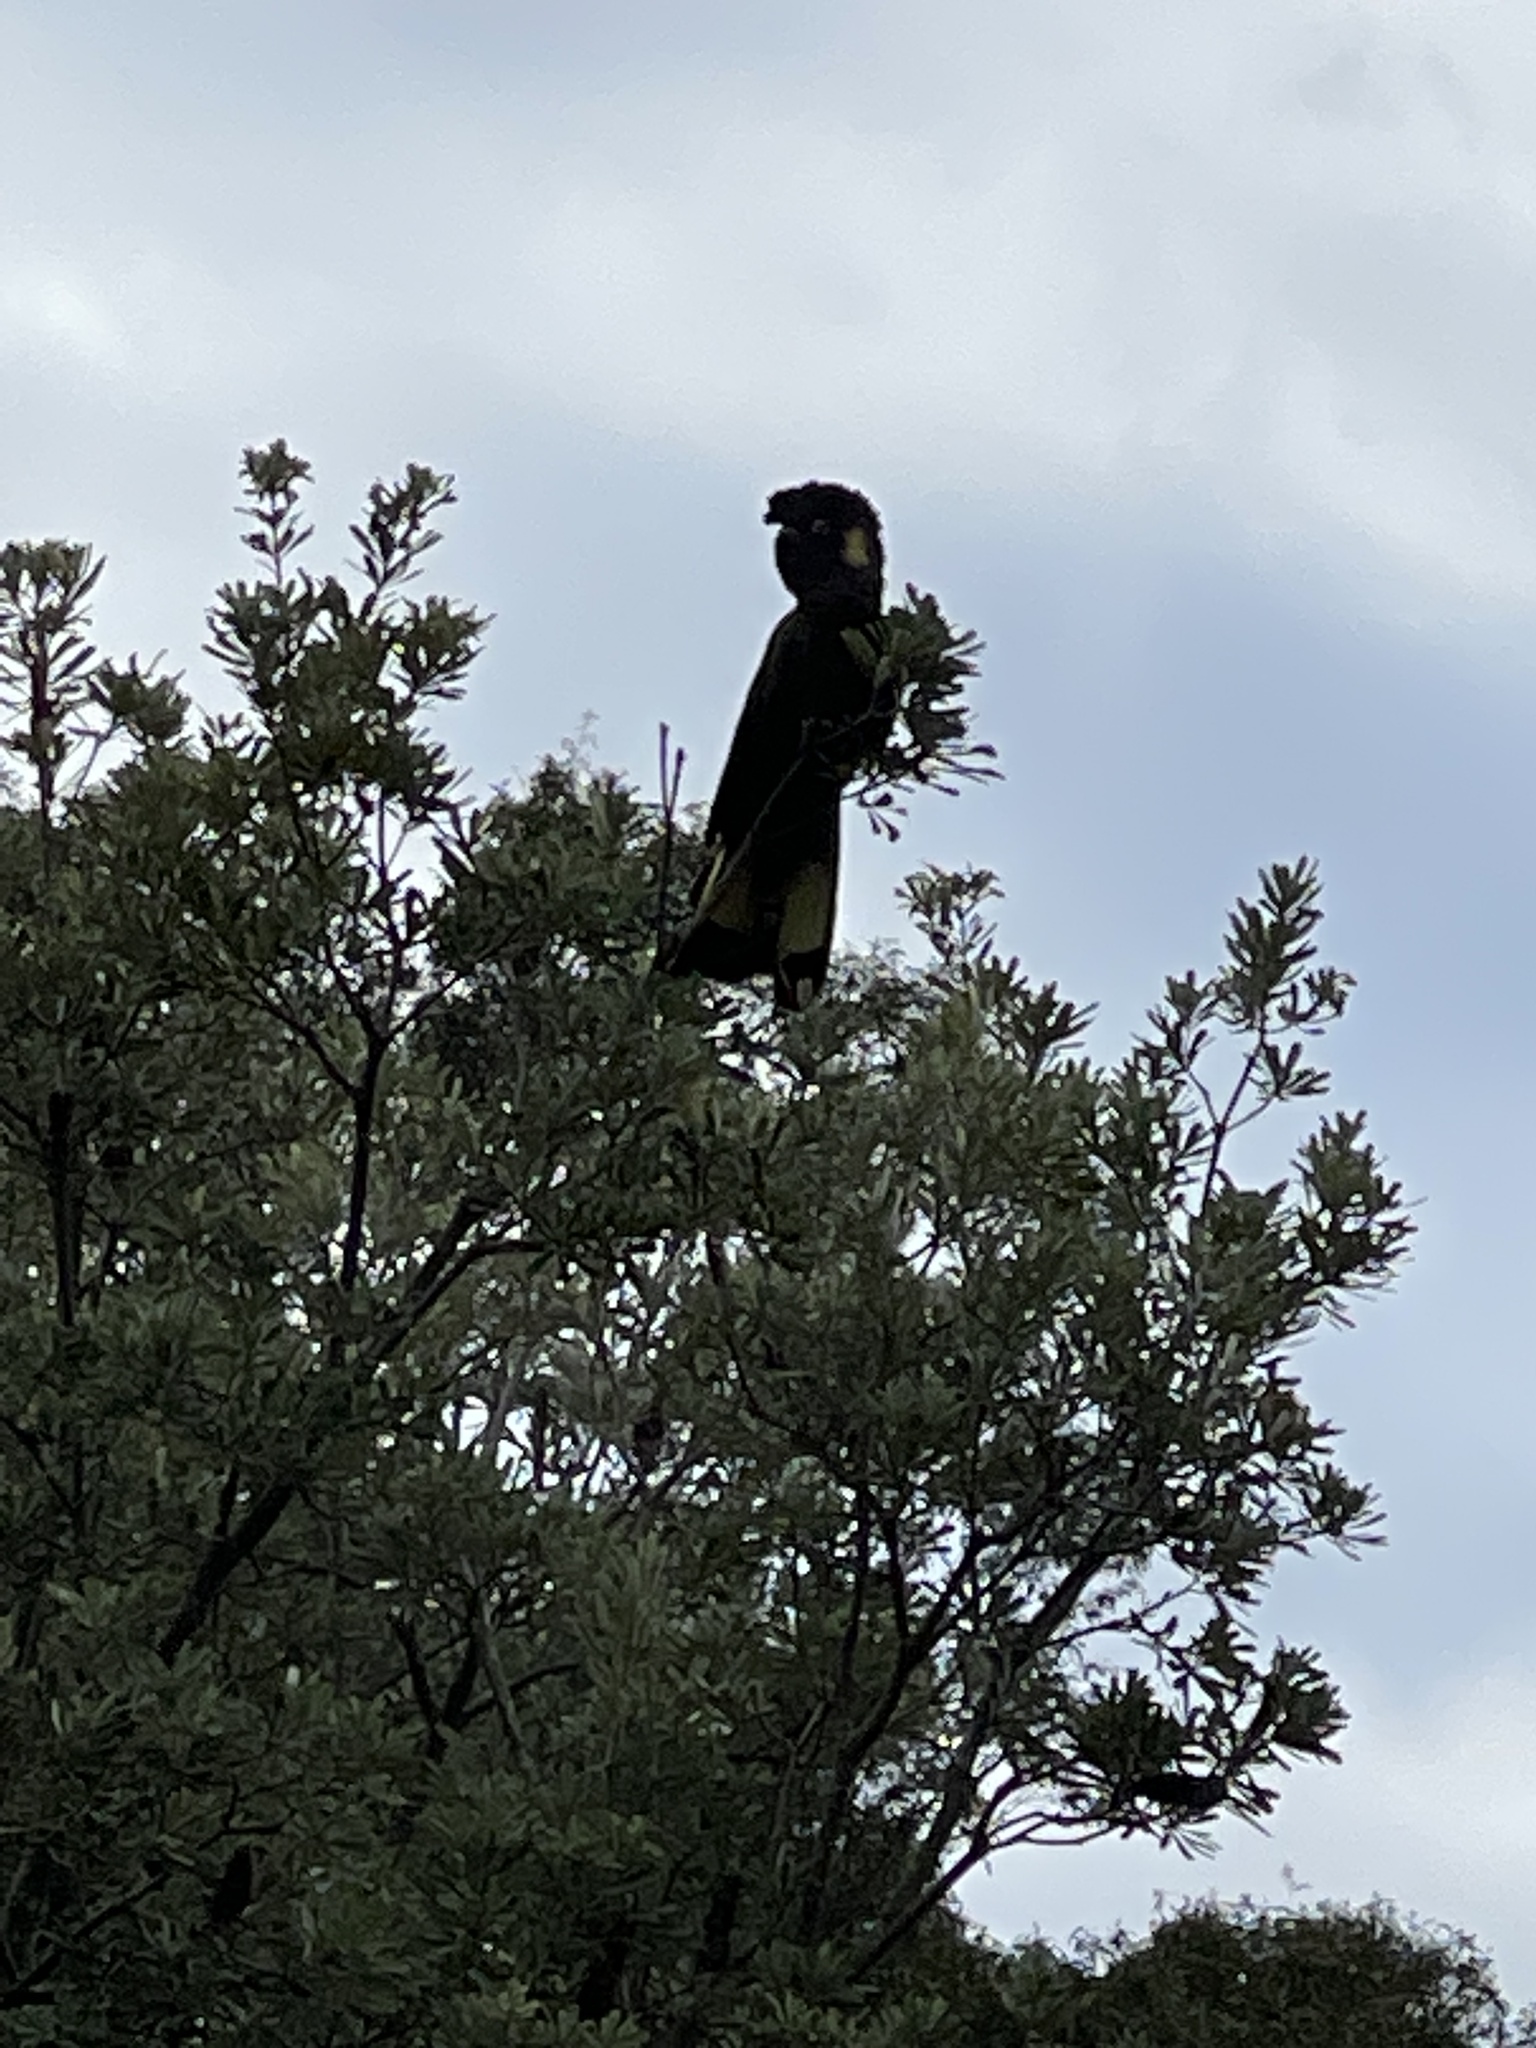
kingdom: Animalia
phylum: Chordata
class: Aves
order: Psittaciformes
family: Cacatuidae
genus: Zanda
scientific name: Zanda funerea
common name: Yellow-tailed black-cockatoo
